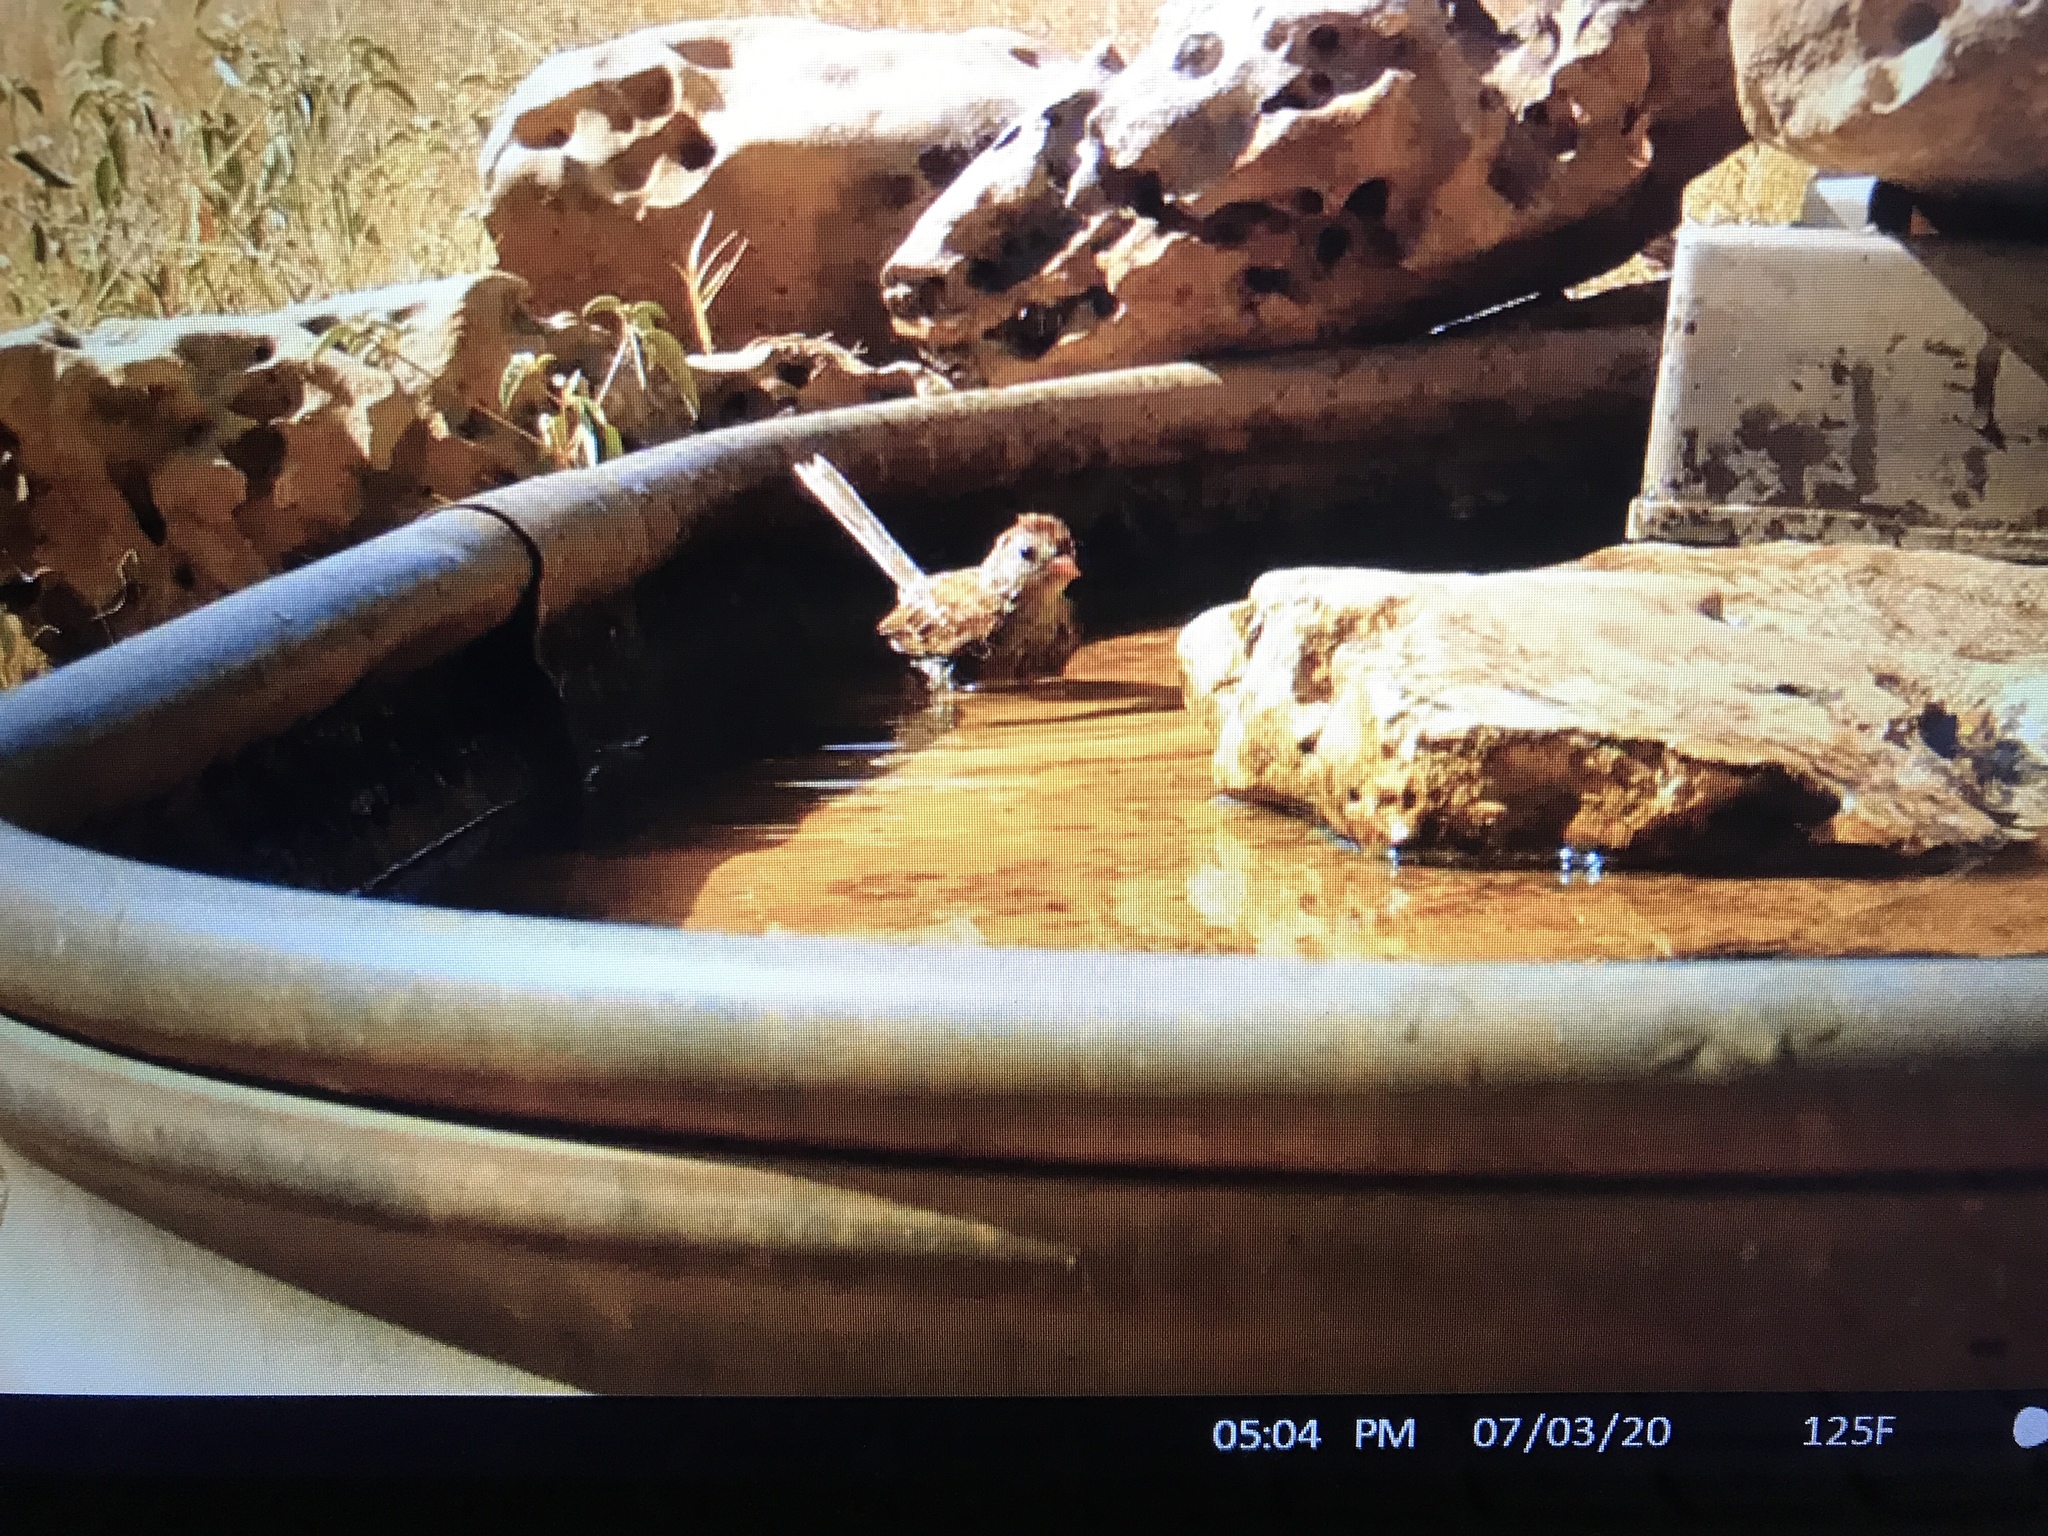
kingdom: Animalia
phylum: Chordata
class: Aves
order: Passeriformes
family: Passerellidae
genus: Spizella
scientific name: Spizella pusilla
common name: Field sparrow
